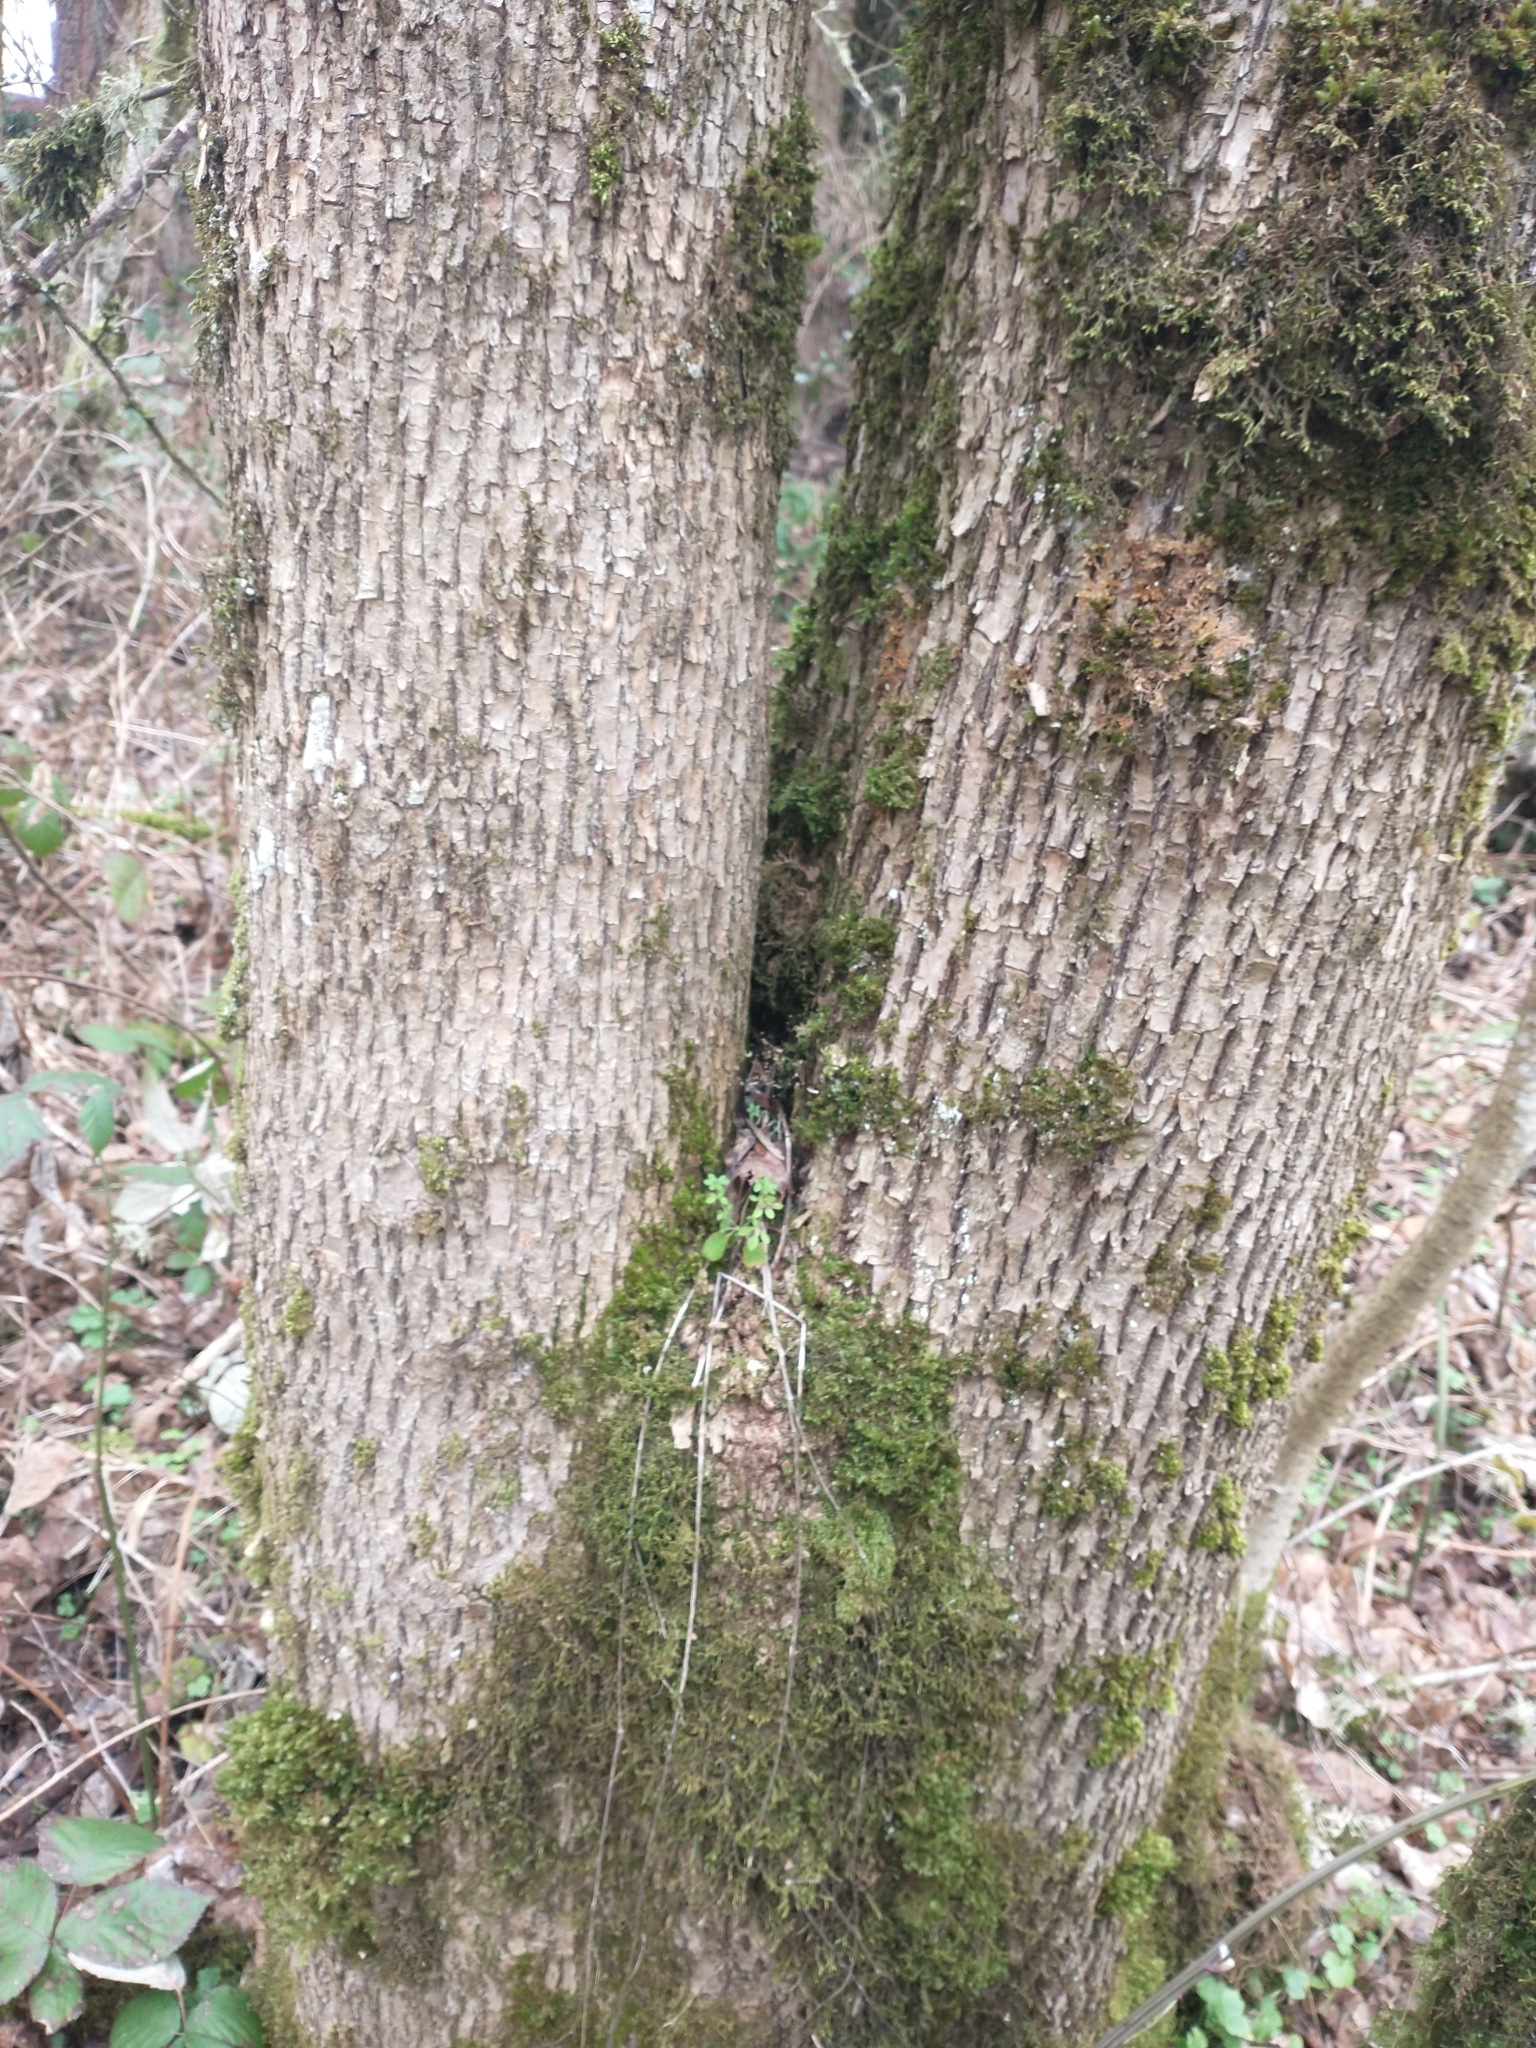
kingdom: Plantae
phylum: Tracheophyta
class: Magnoliopsida
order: Lamiales
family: Oleaceae
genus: Fraxinus
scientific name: Fraxinus latifolia
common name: Oregon ash
